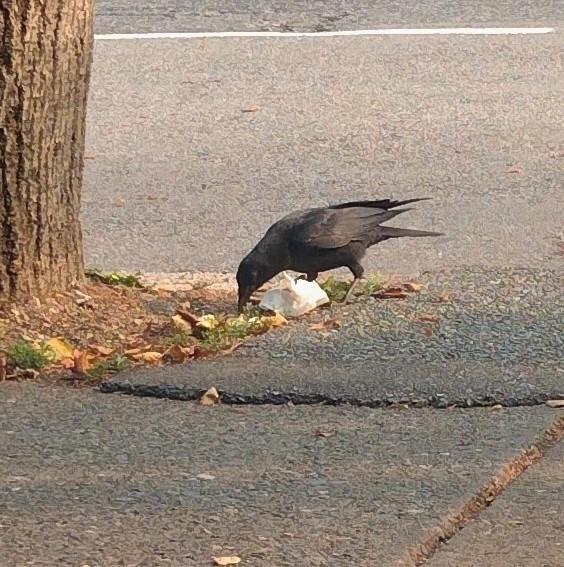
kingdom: Animalia
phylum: Chordata
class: Aves
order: Passeriformes
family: Corvidae
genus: Corvus
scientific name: Corvus brachyrhynchos
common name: American crow
